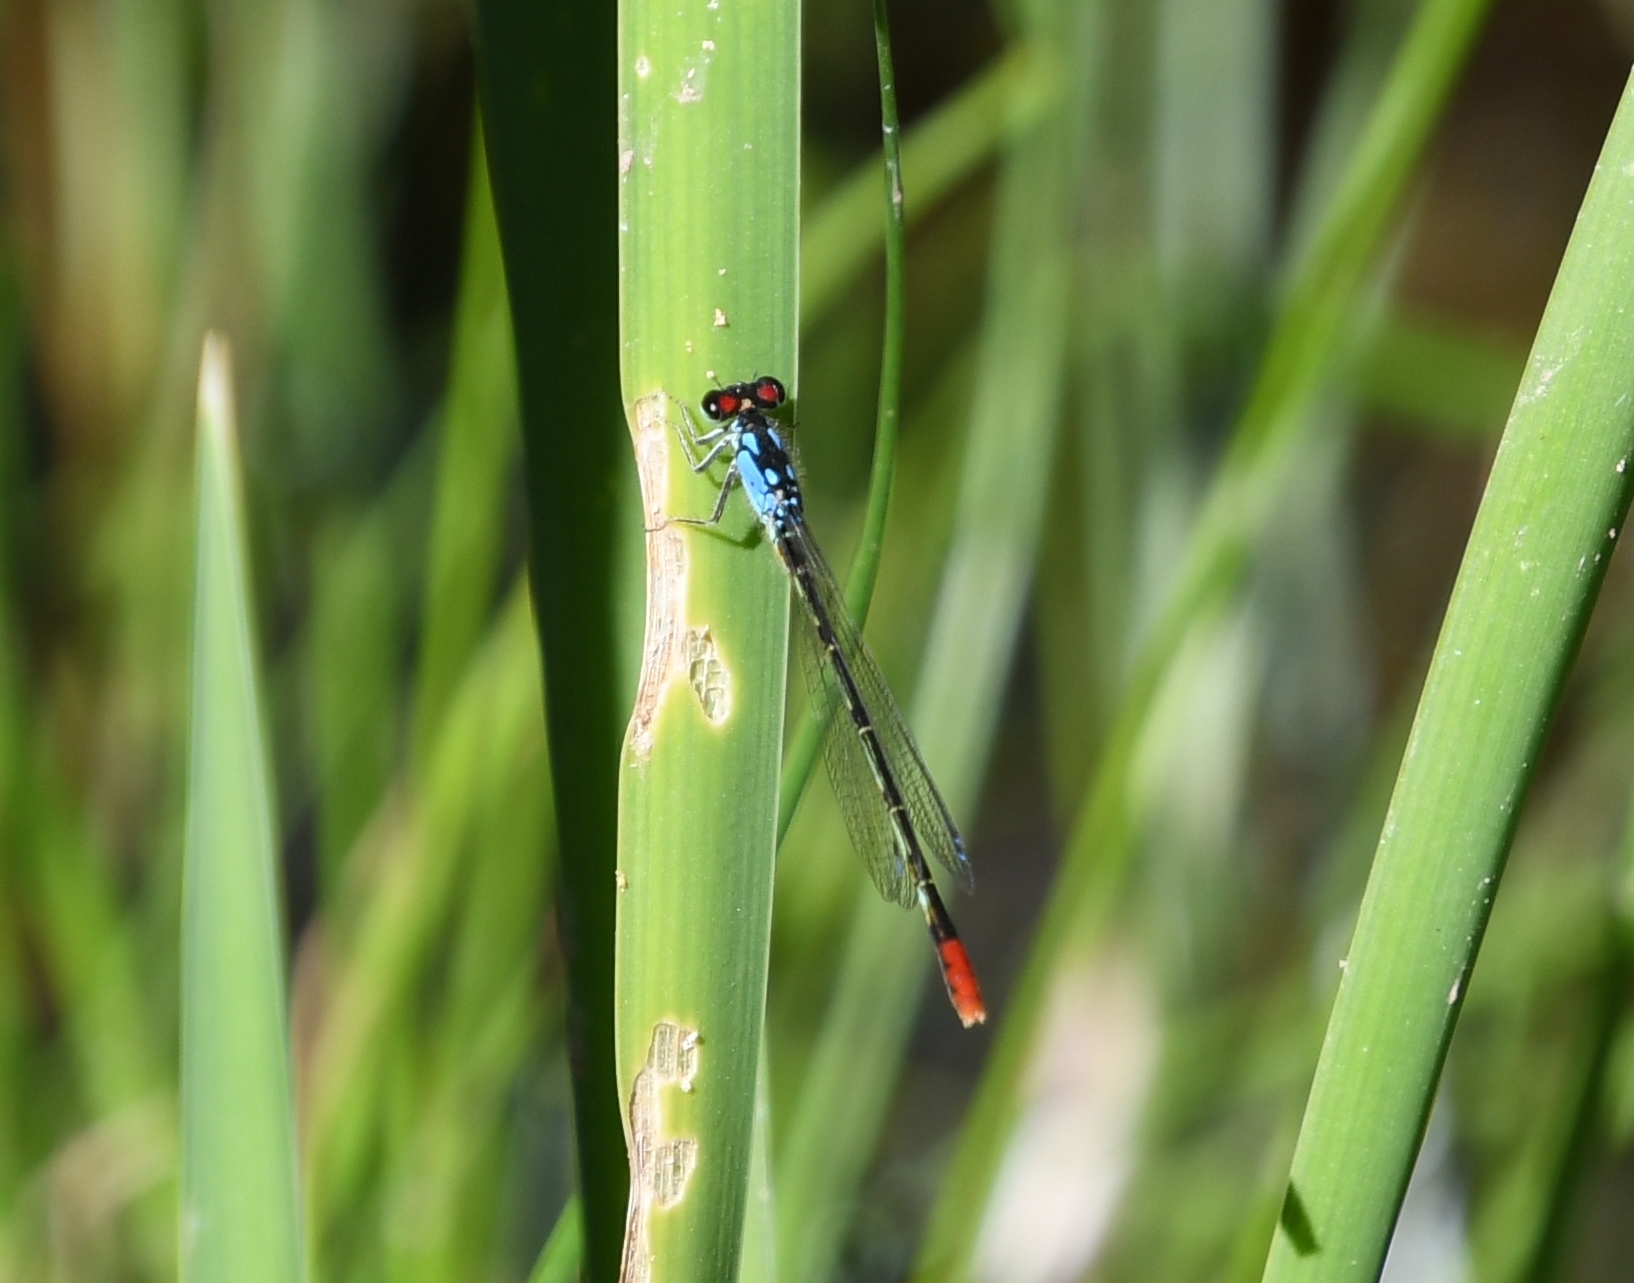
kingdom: Animalia
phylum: Arthropoda
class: Insecta
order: Odonata
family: Coenagrionidae
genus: Hesperagrion
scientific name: Hesperagrion heterodoxum
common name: Painted damsel
